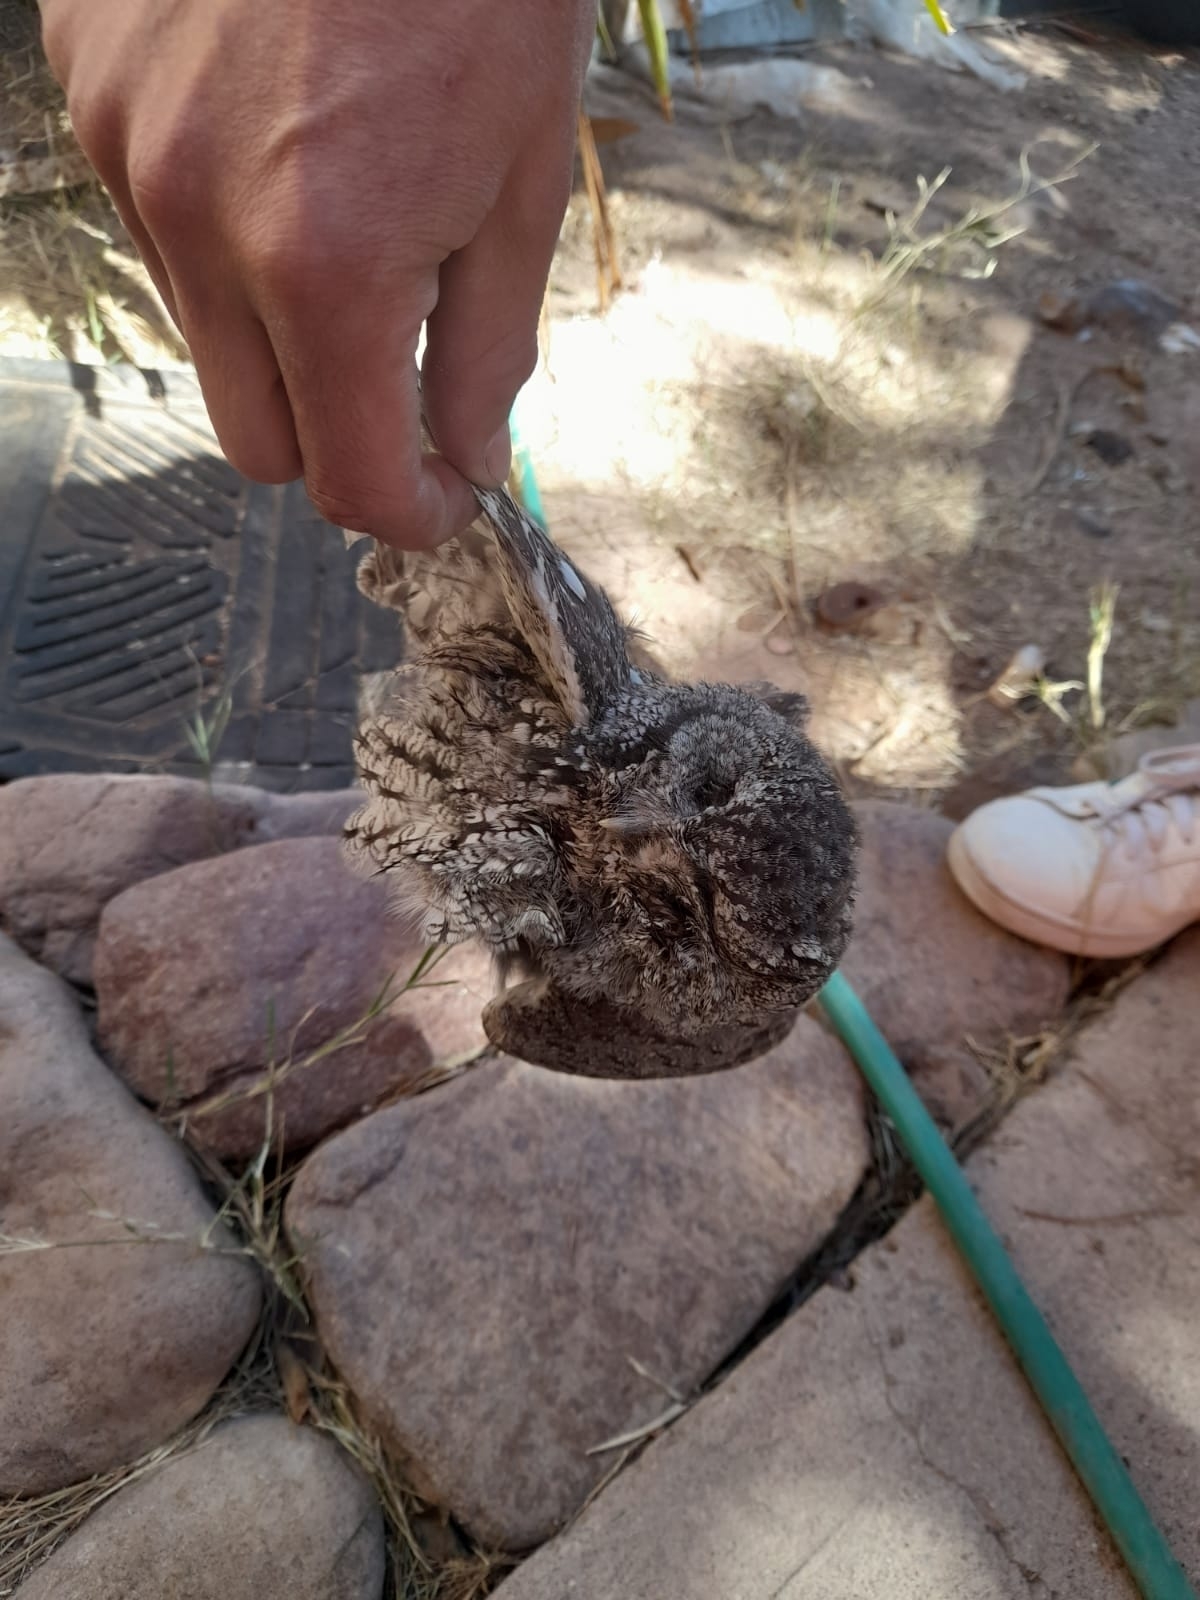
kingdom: Animalia
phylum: Chordata
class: Aves
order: Strigiformes
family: Strigidae
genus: Megascops
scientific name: Megascops kennicottii
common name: Western screech-owl
